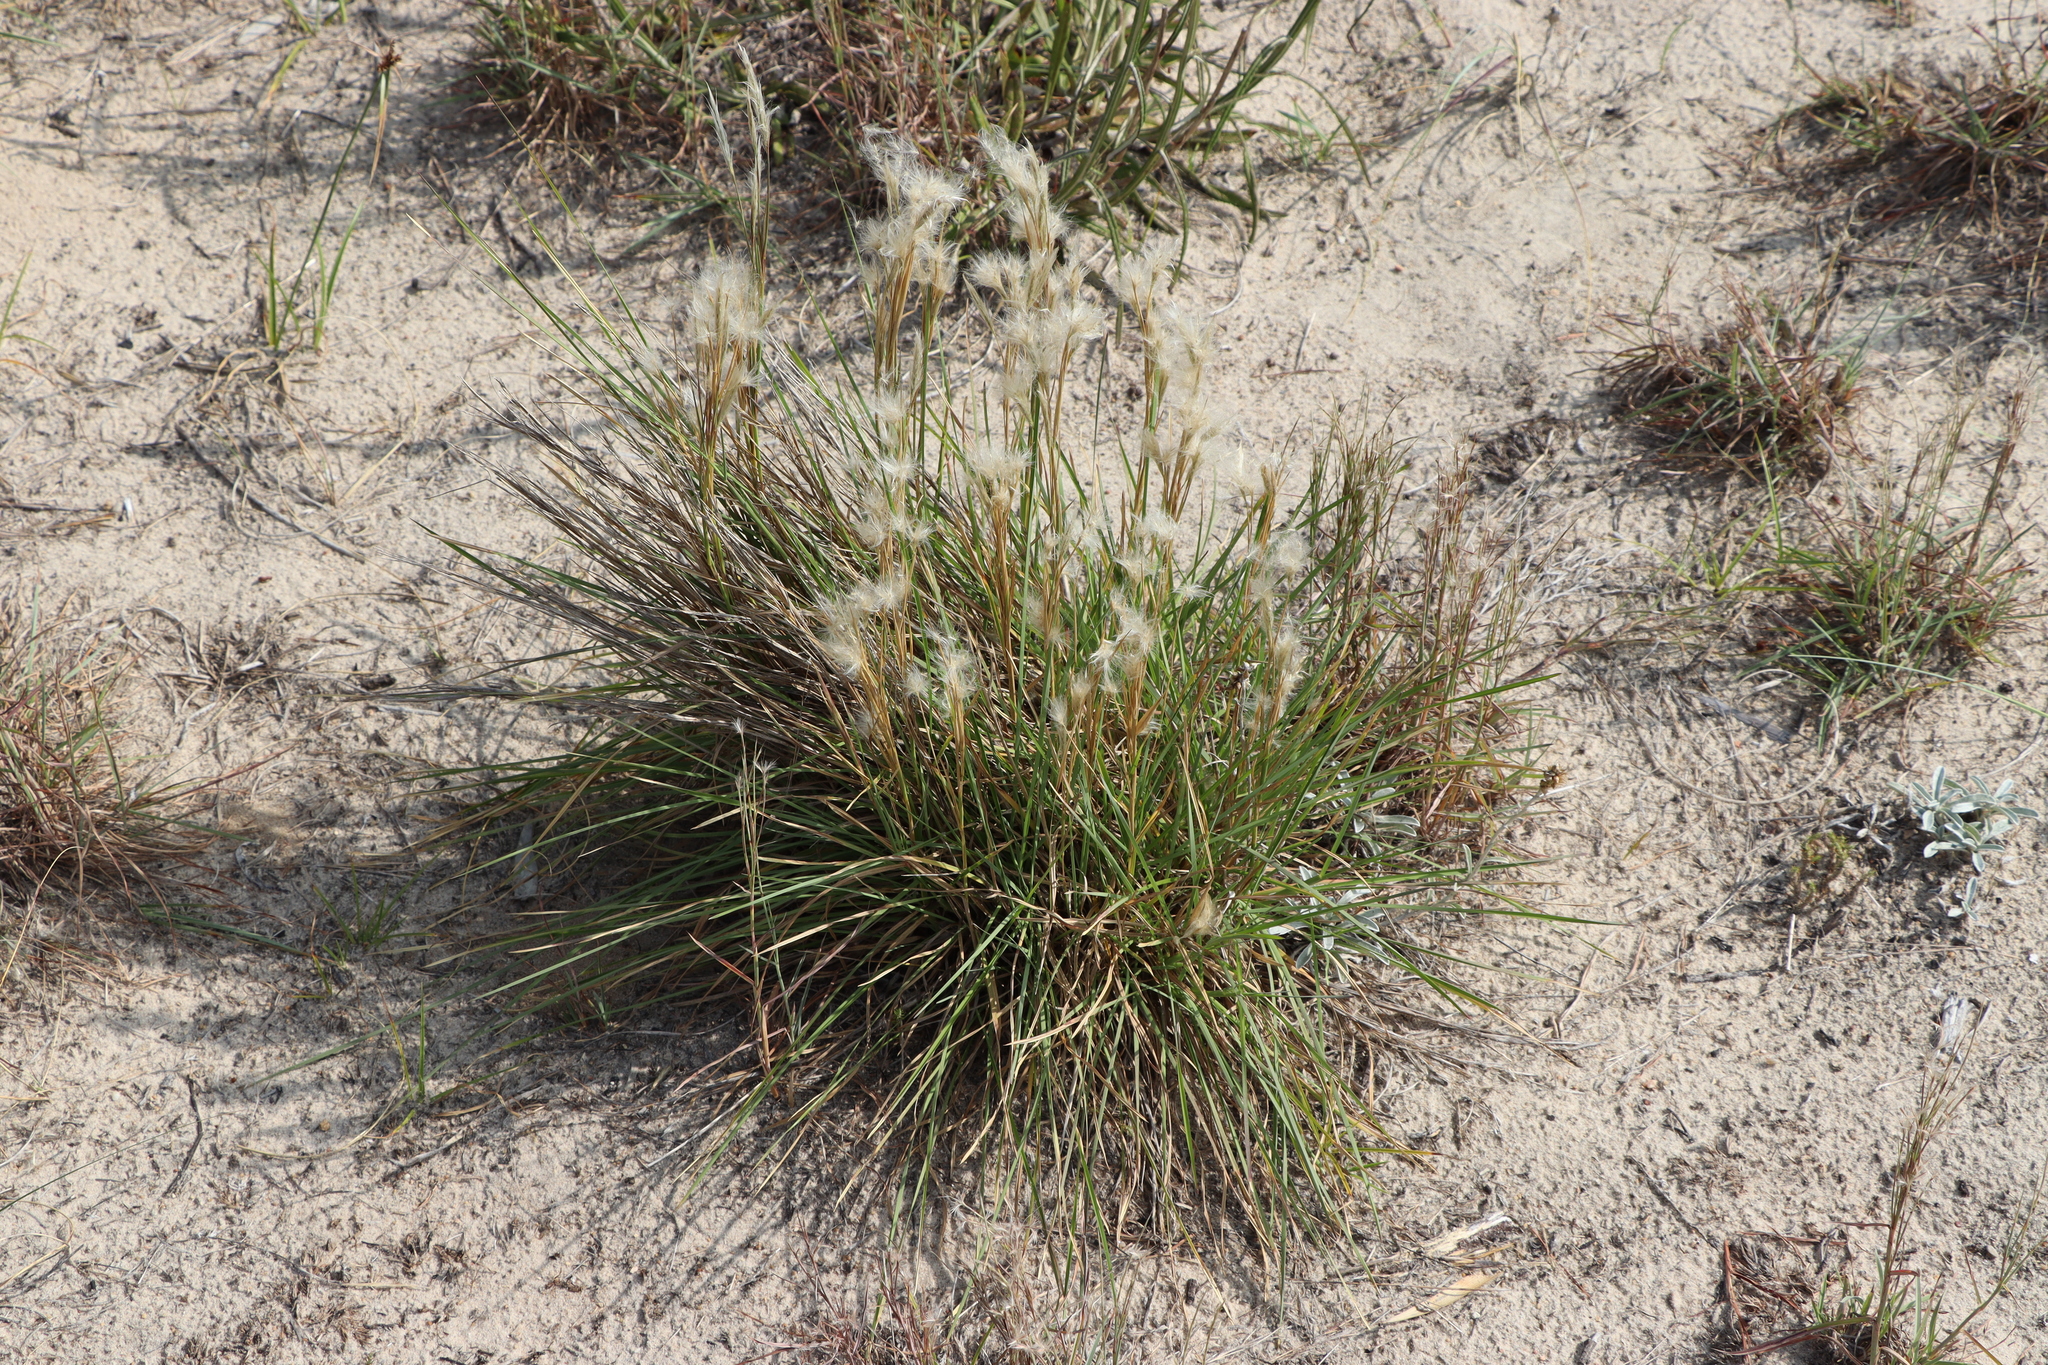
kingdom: Plantae
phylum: Tracheophyta
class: Liliopsida
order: Poales
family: Poaceae
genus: Andropogon
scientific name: Andropogon selloanus
